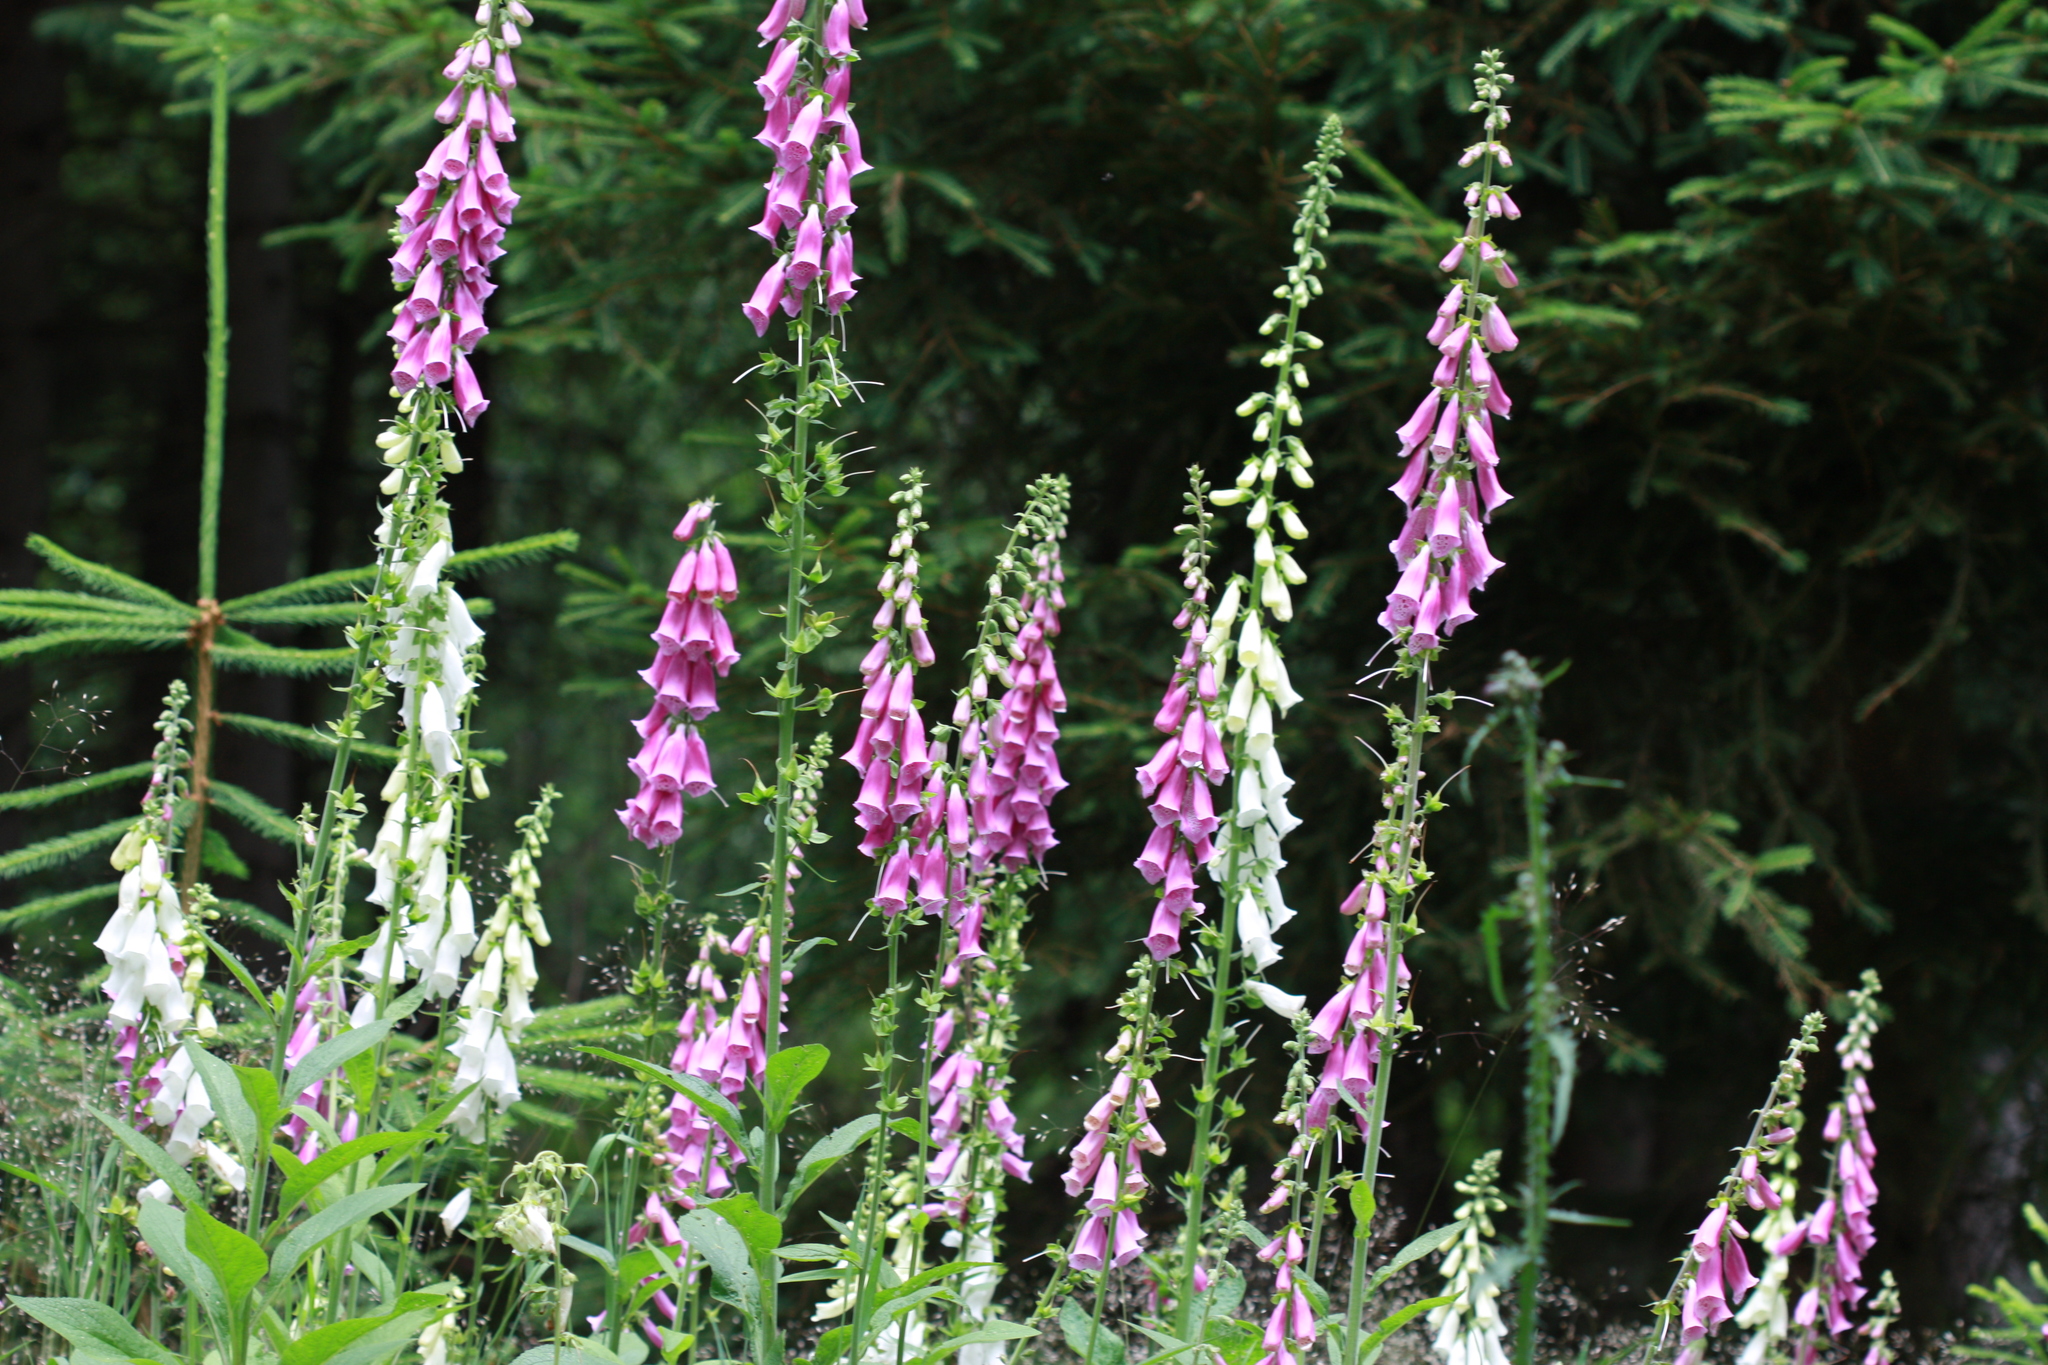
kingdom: Plantae
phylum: Tracheophyta
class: Magnoliopsida
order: Lamiales
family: Plantaginaceae
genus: Digitalis
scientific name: Digitalis purpurea
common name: Foxglove
